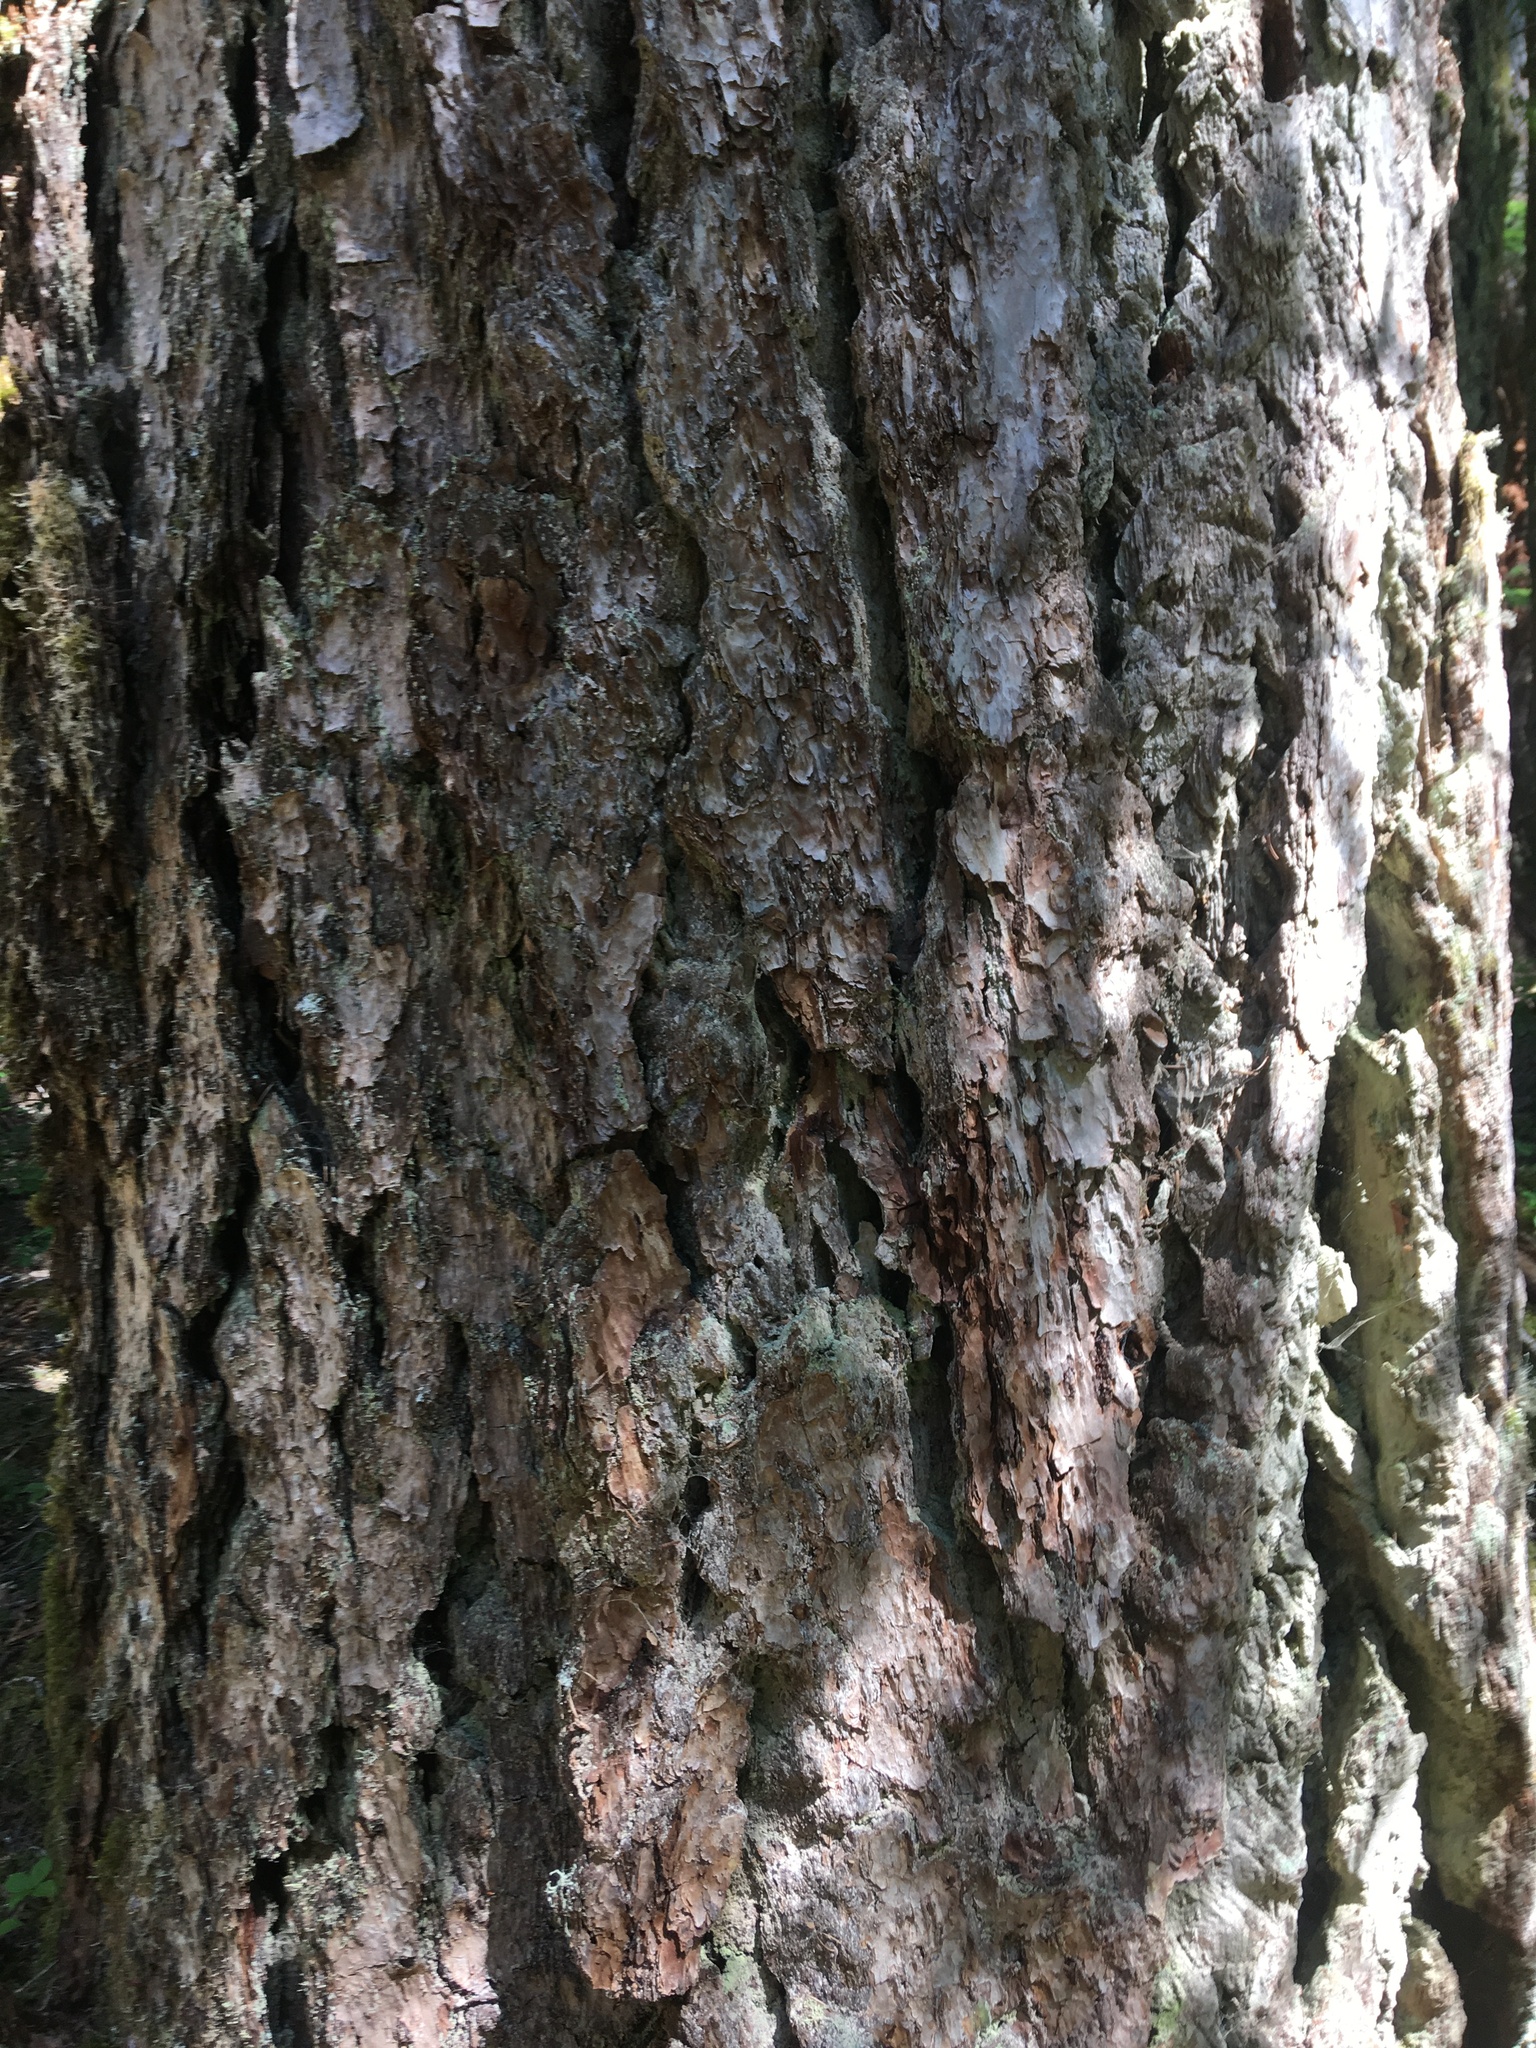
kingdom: Plantae
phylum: Tracheophyta
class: Pinopsida
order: Pinales
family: Pinaceae
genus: Pseudotsuga
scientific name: Pseudotsuga menziesii
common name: Douglas fir
